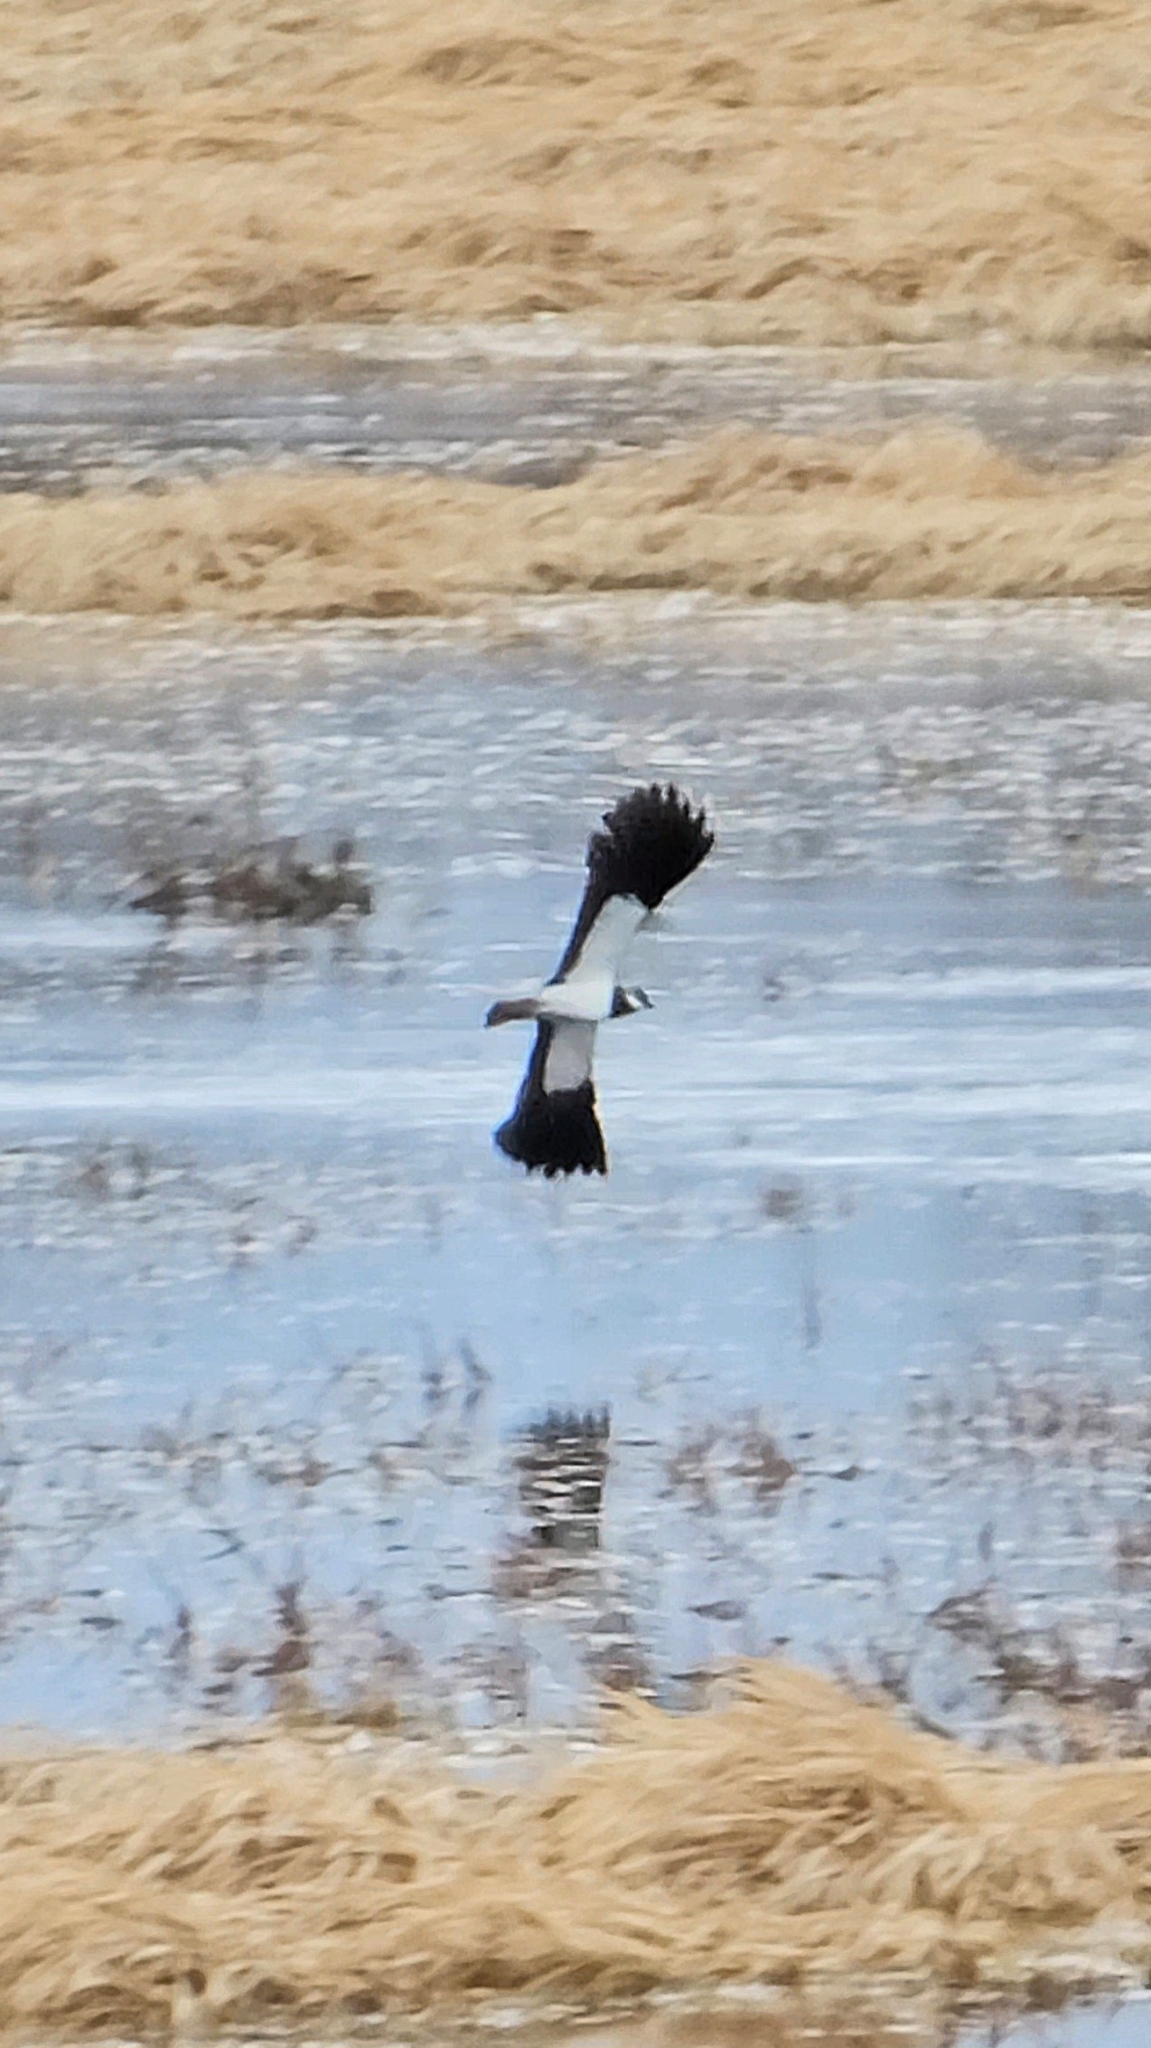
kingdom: Animalia
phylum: Chordata
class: Aves
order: Charadriiformes
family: Charadriidae
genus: Vanellus
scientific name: Vanellus vanellus
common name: Northern lapwing
